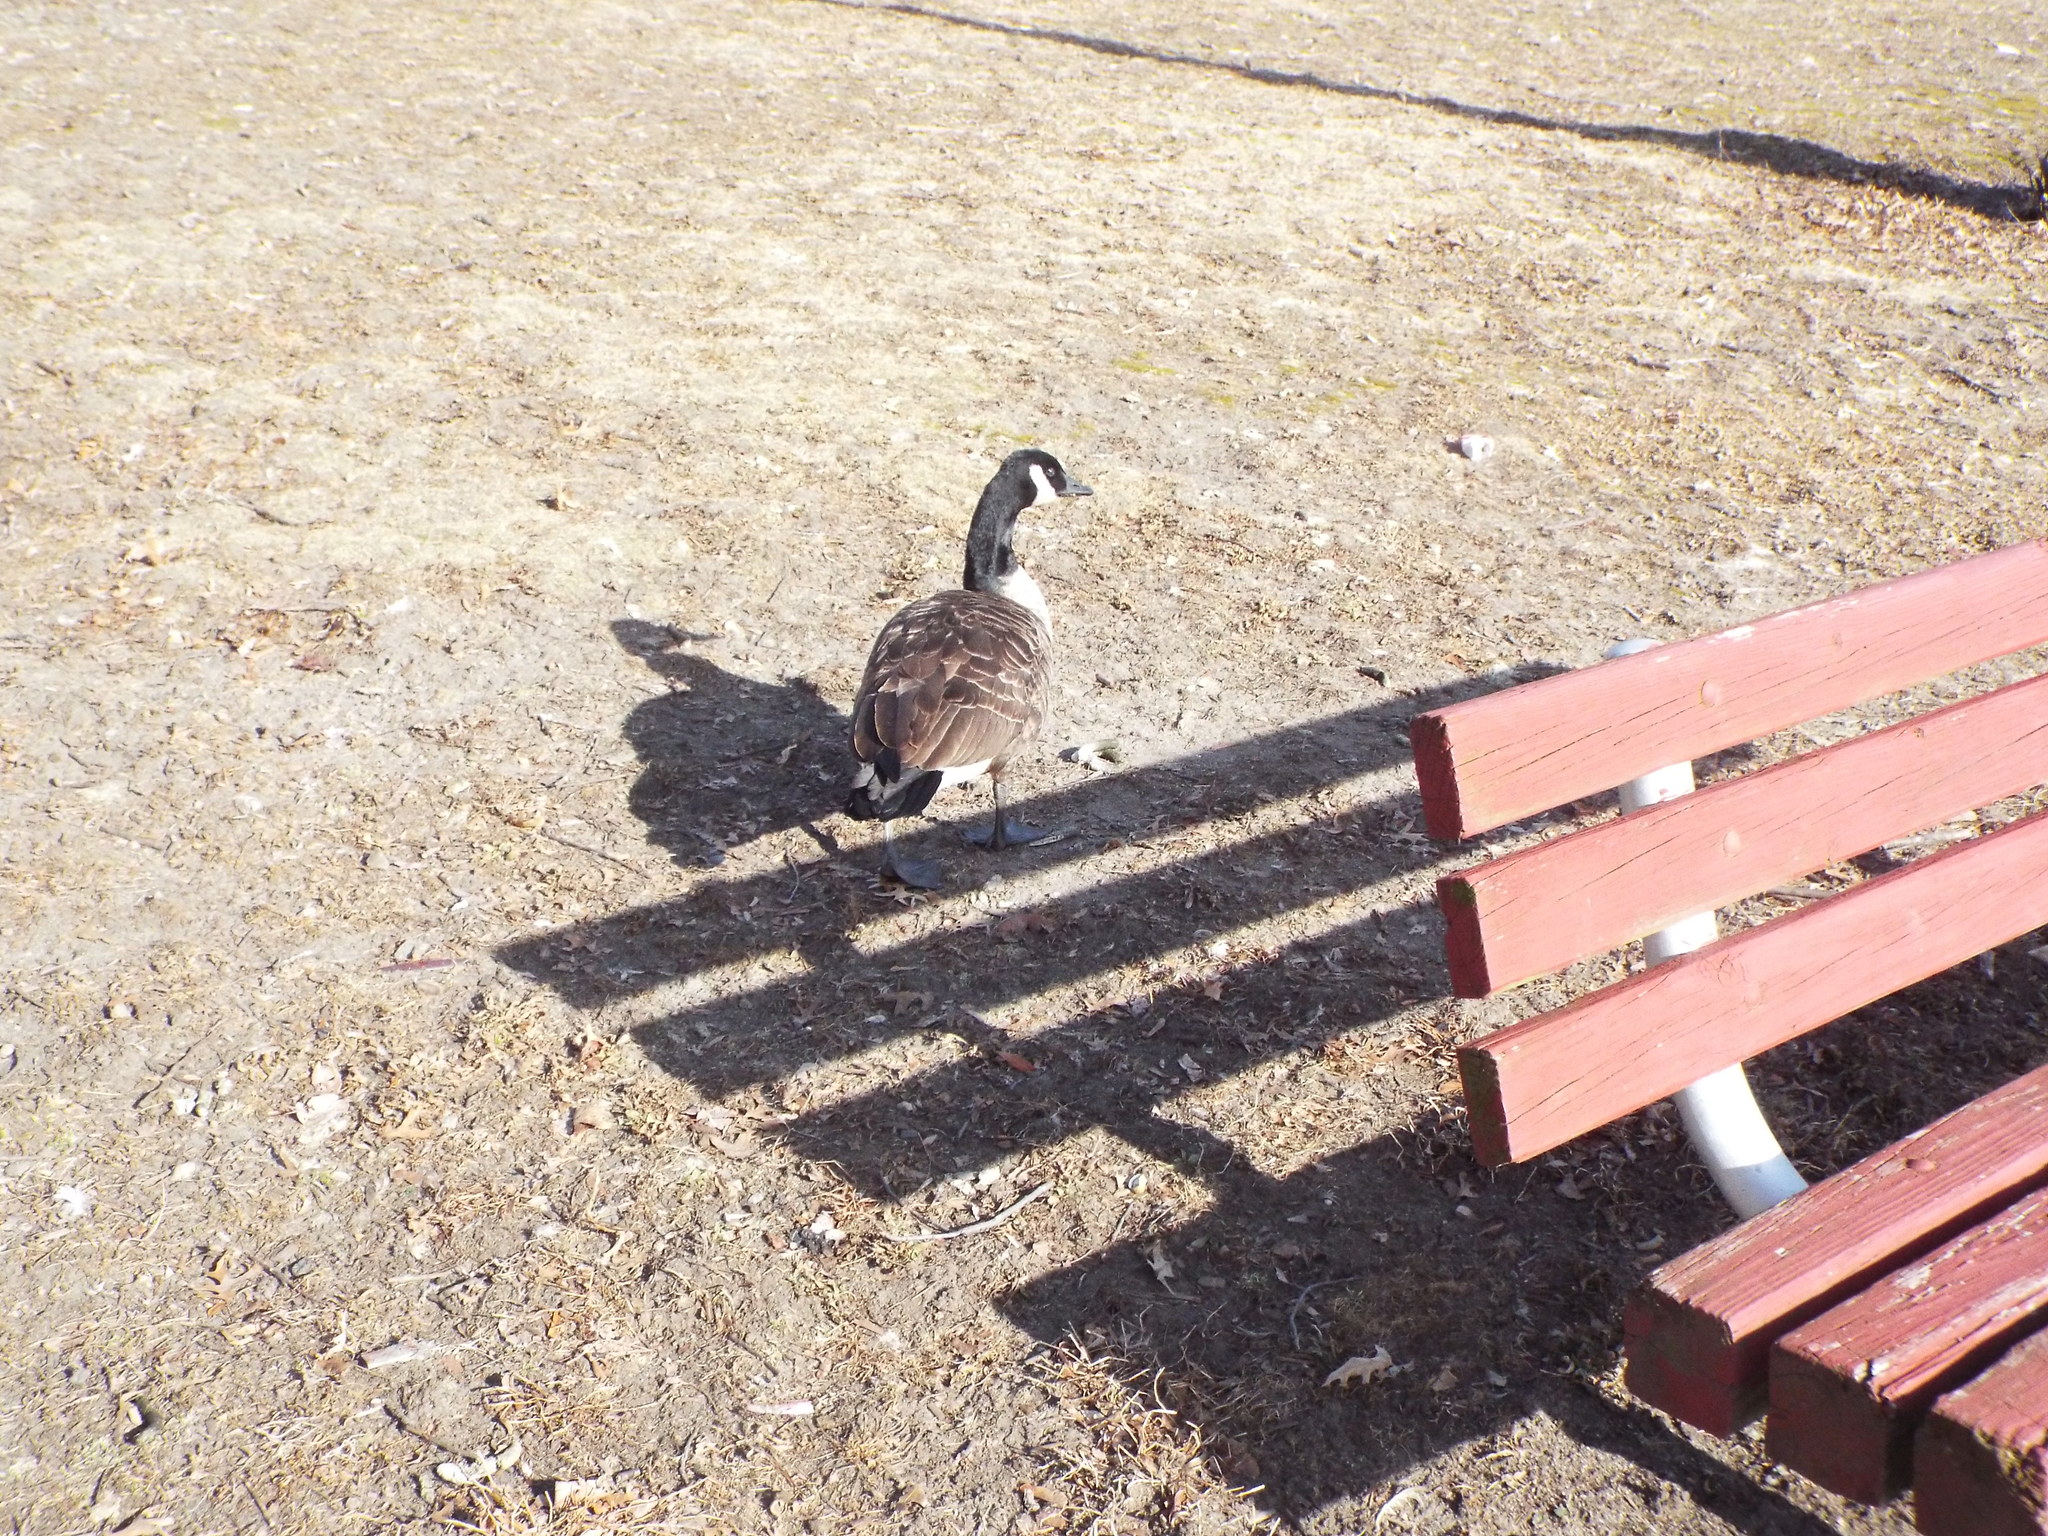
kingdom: Animalia
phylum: Chordata
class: Aves
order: Anseriformes
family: Anatidae
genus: Branta
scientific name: Branta canadensis
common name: Canada goose
